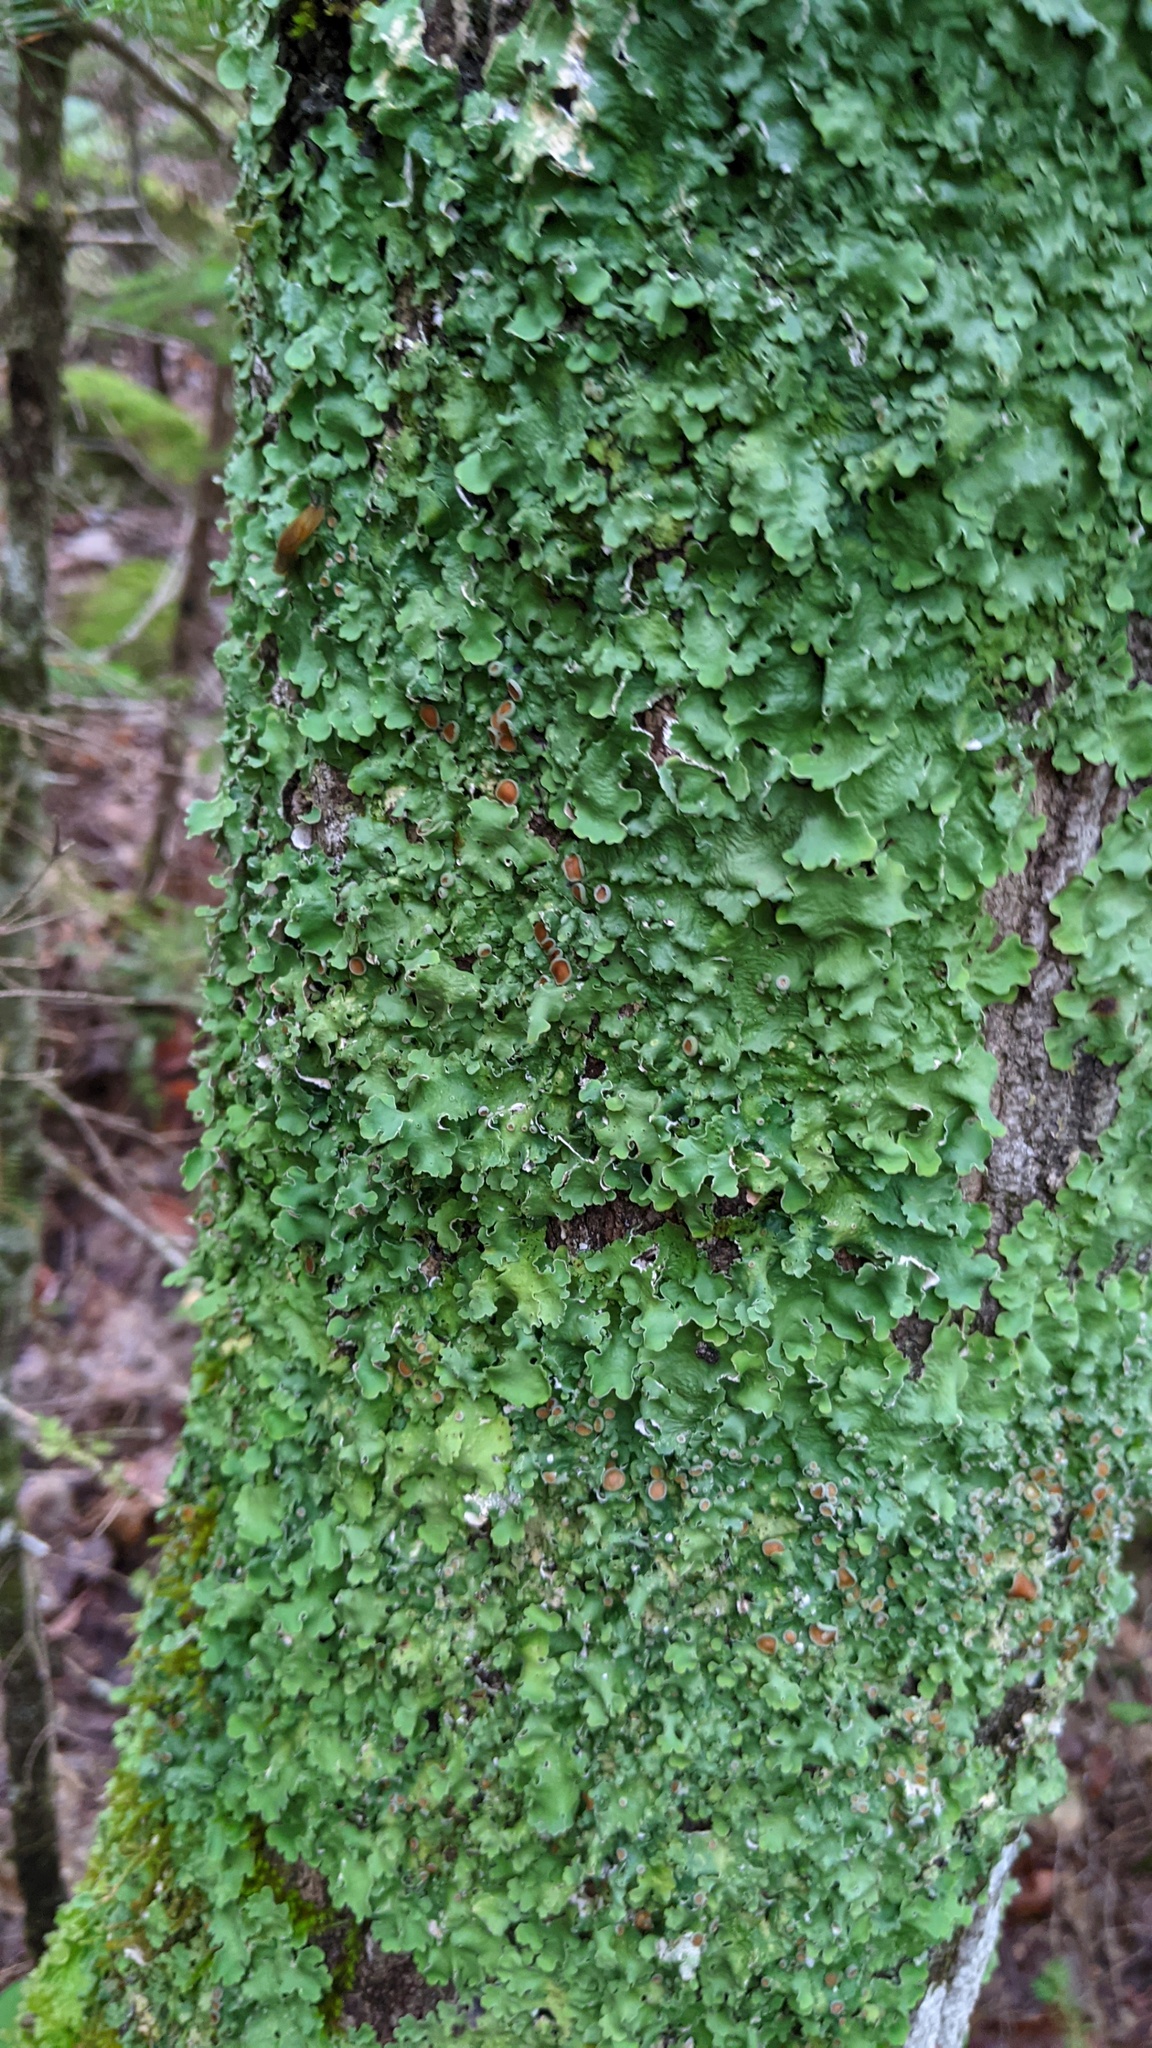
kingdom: Fungi
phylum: Ascomycota
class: Lecanoromycetes
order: Peltigerales
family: Lobariaceae
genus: Ricasolia
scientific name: Ricasolia quercizans
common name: Smooth lungwort
